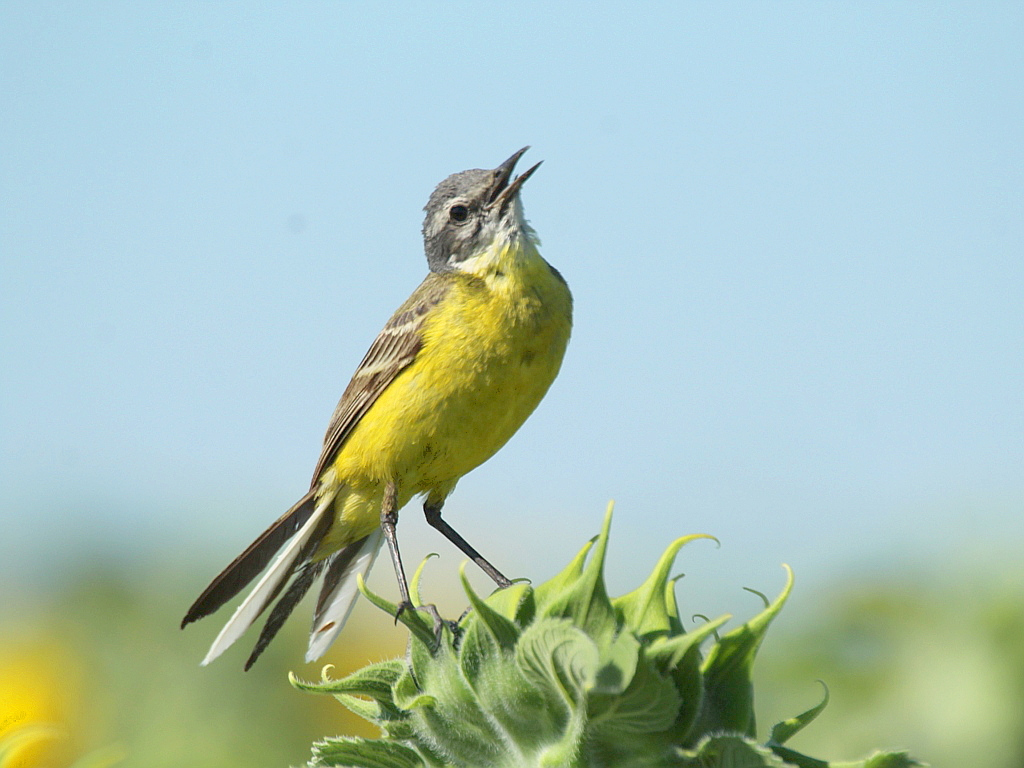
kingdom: Animalia
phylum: Chordata
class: Aves
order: Passeriformes
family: Motacillidae
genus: Motacilla
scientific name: Motacilla flava
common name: Western yellow wagtail
